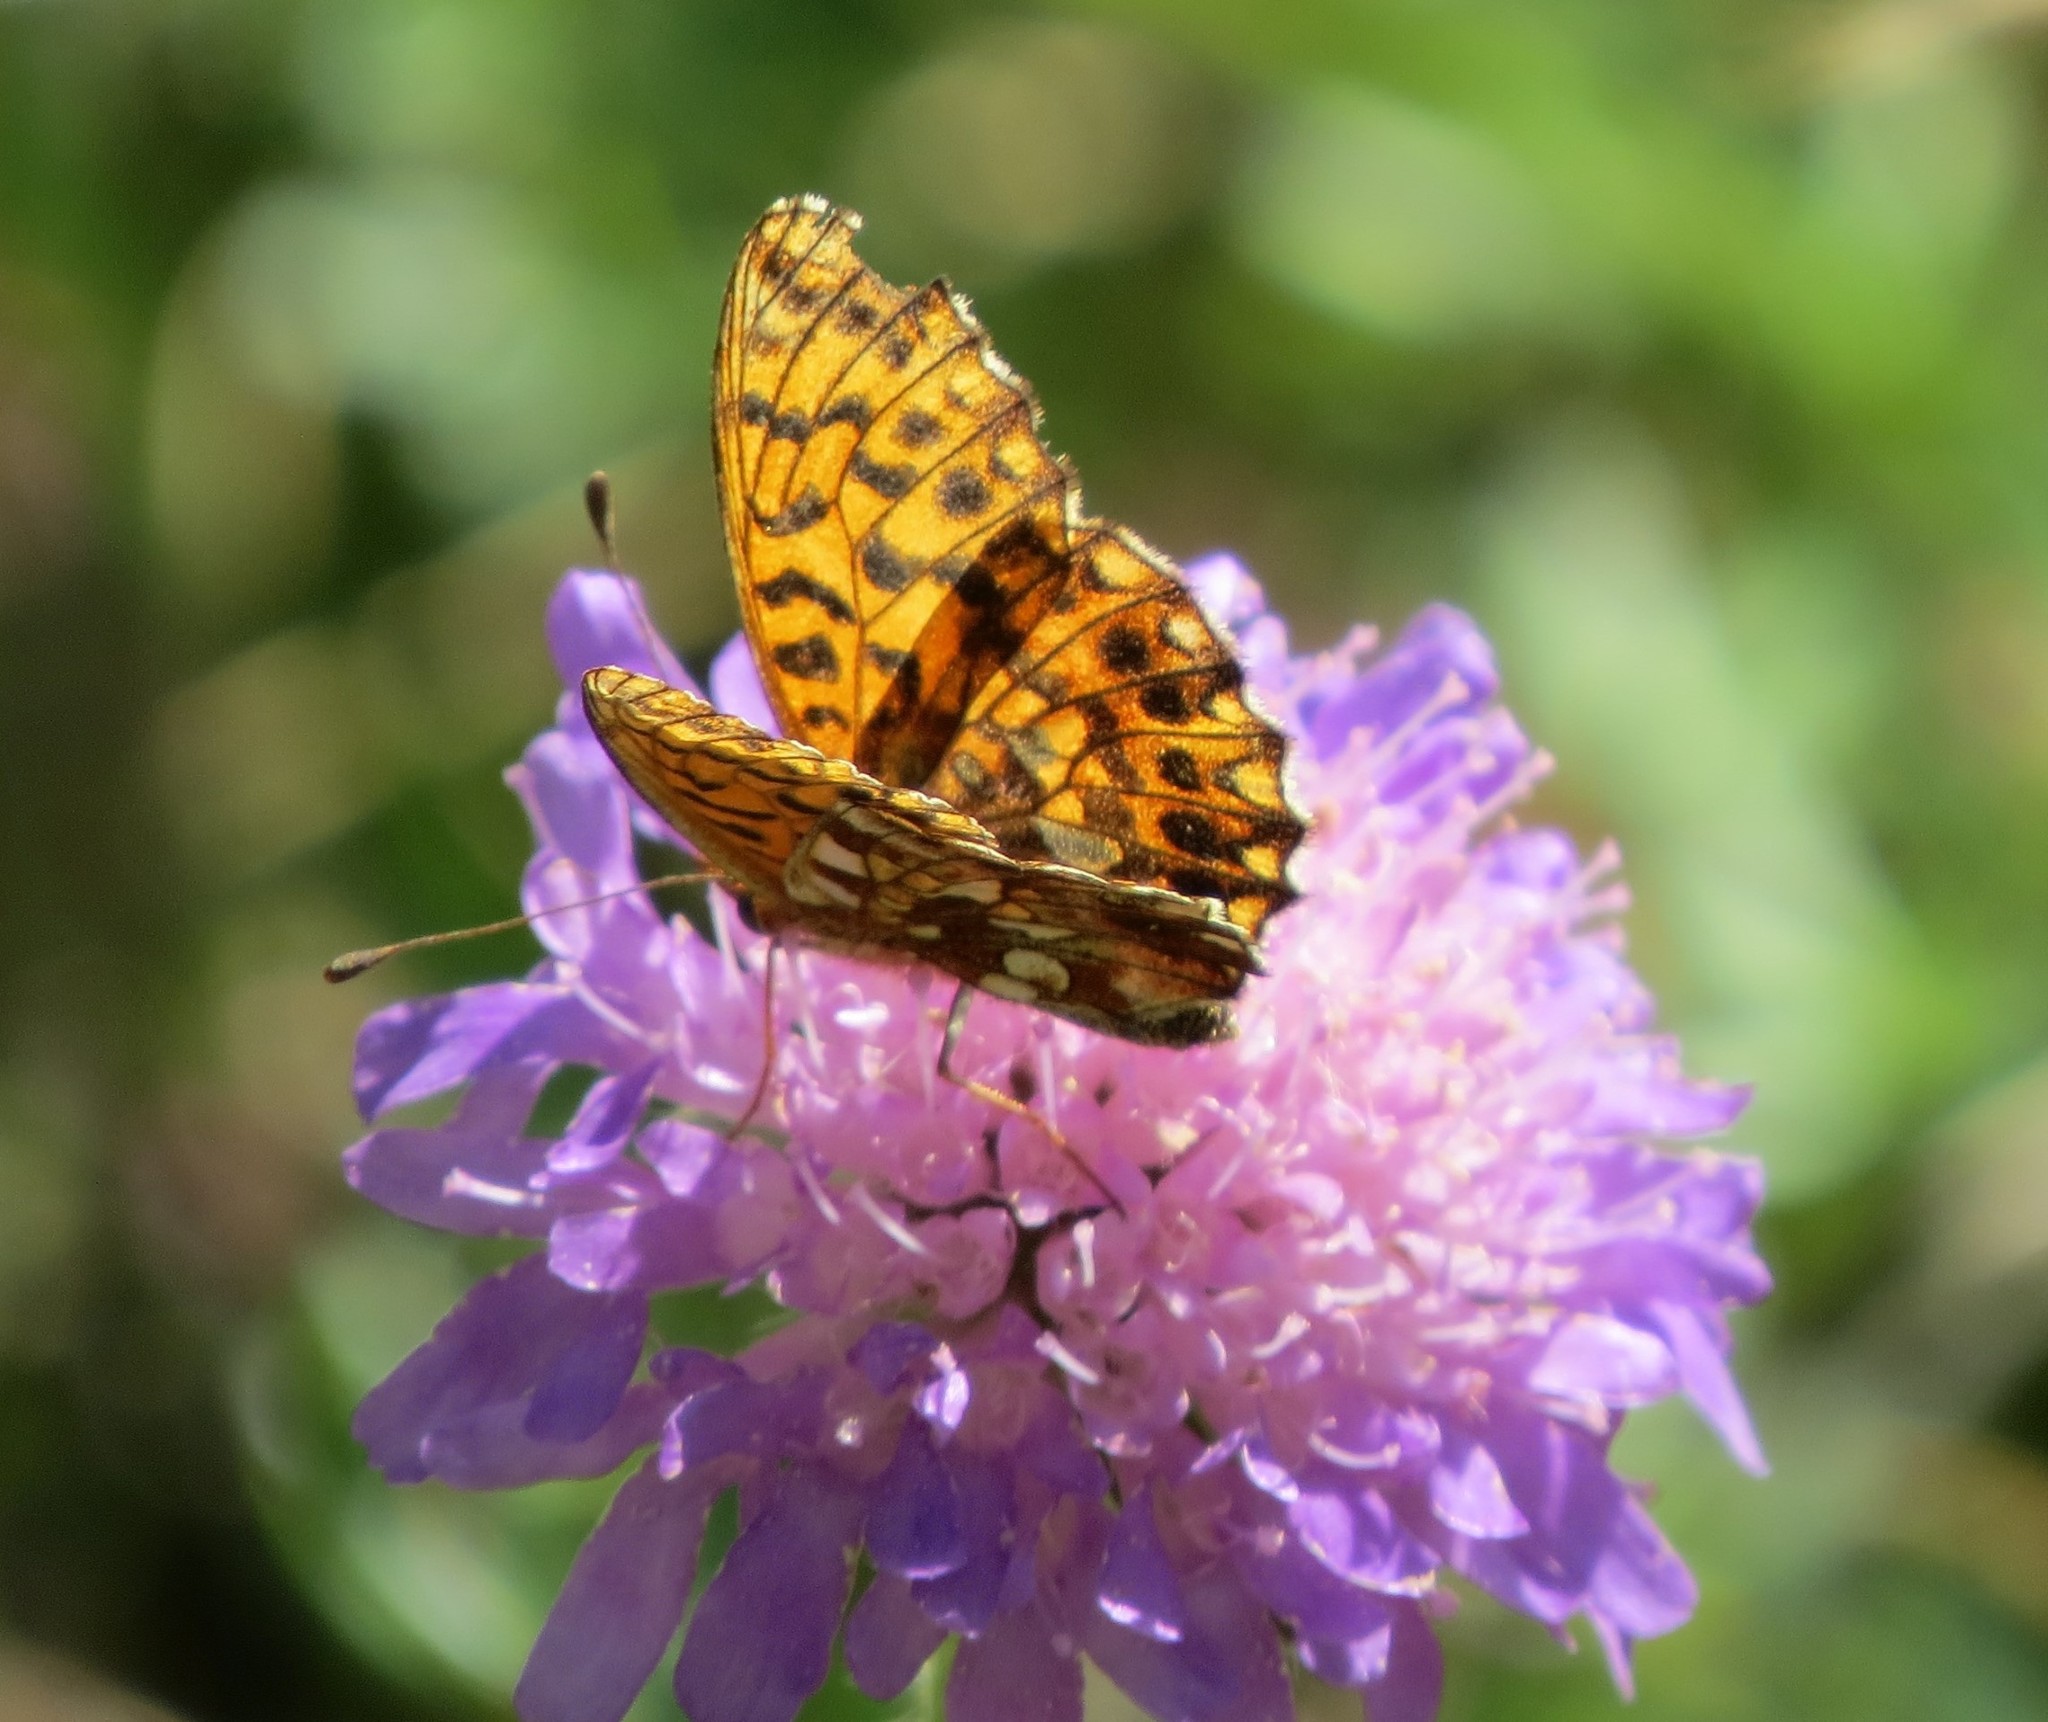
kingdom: Animalia
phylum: Arthropoda
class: Insecta
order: Lepidoptera
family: Nymphalidae
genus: Boloria
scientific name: Boloria dia
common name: Weaver's fritillary
